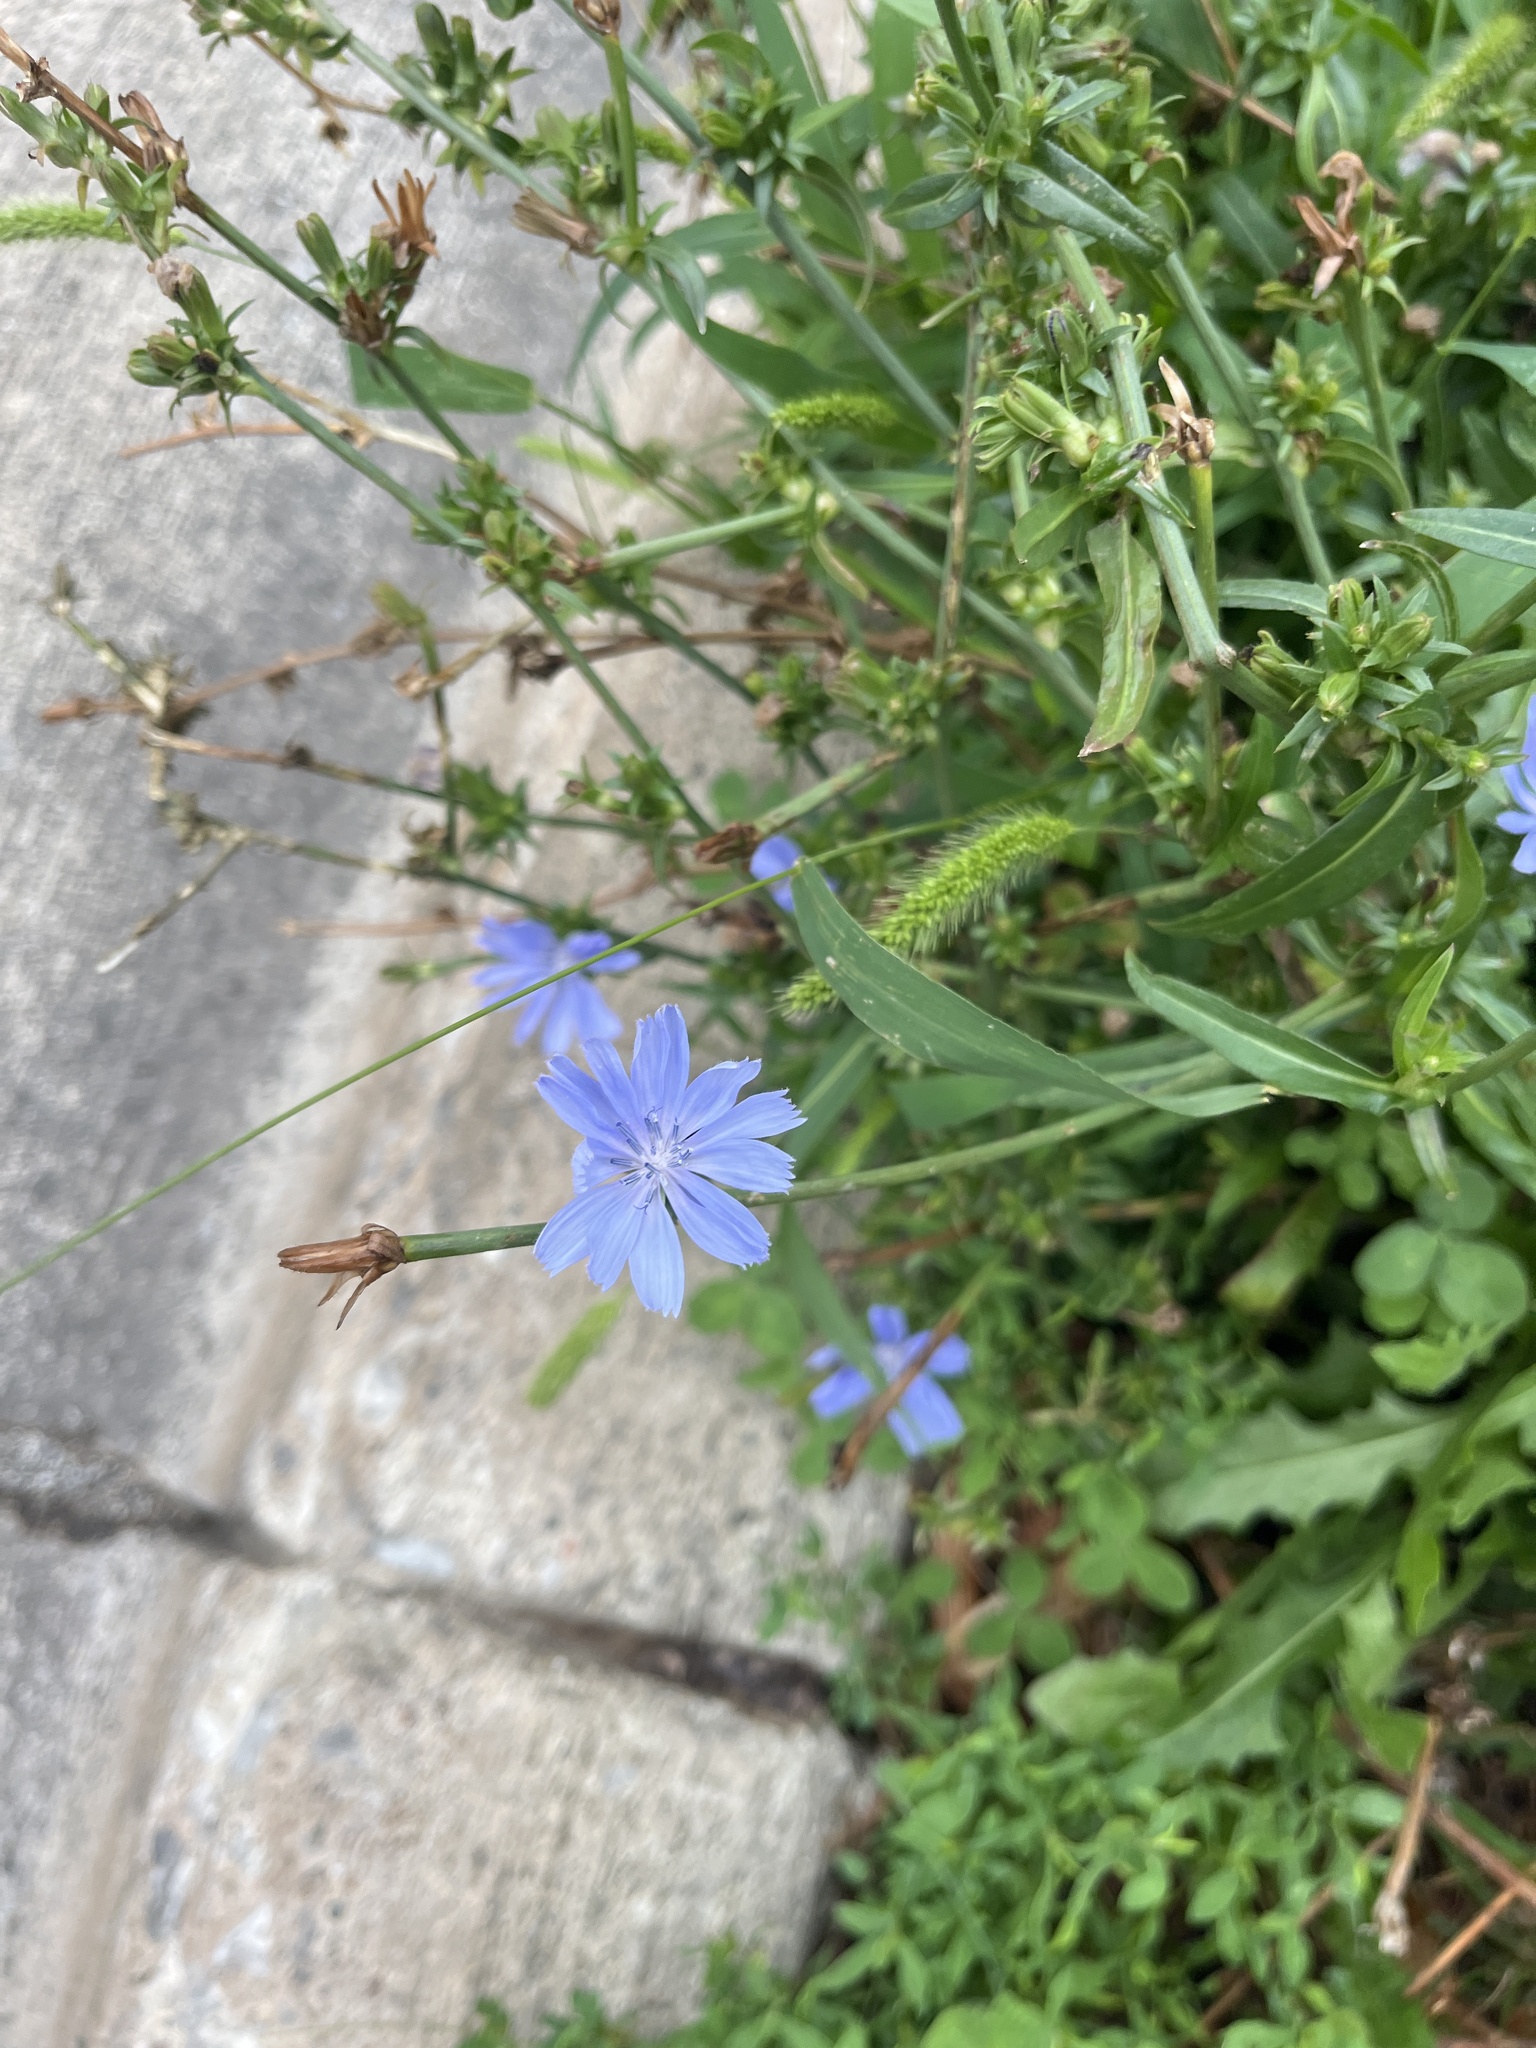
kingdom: Plantae
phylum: Tracheophyta
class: Magnoliopsida
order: Asterales
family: Asteraceae
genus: Cichorium
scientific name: Cichorium intybus
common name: Chicory
